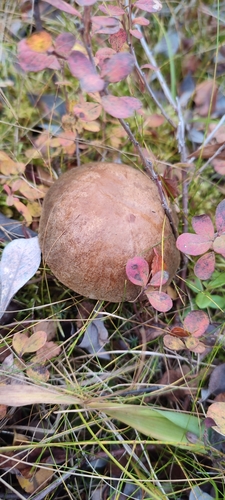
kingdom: Fungi
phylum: Basidiomycota
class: Agaricomycetes
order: Boletales
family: Boletaceae
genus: Leccinum
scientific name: Leccinum
